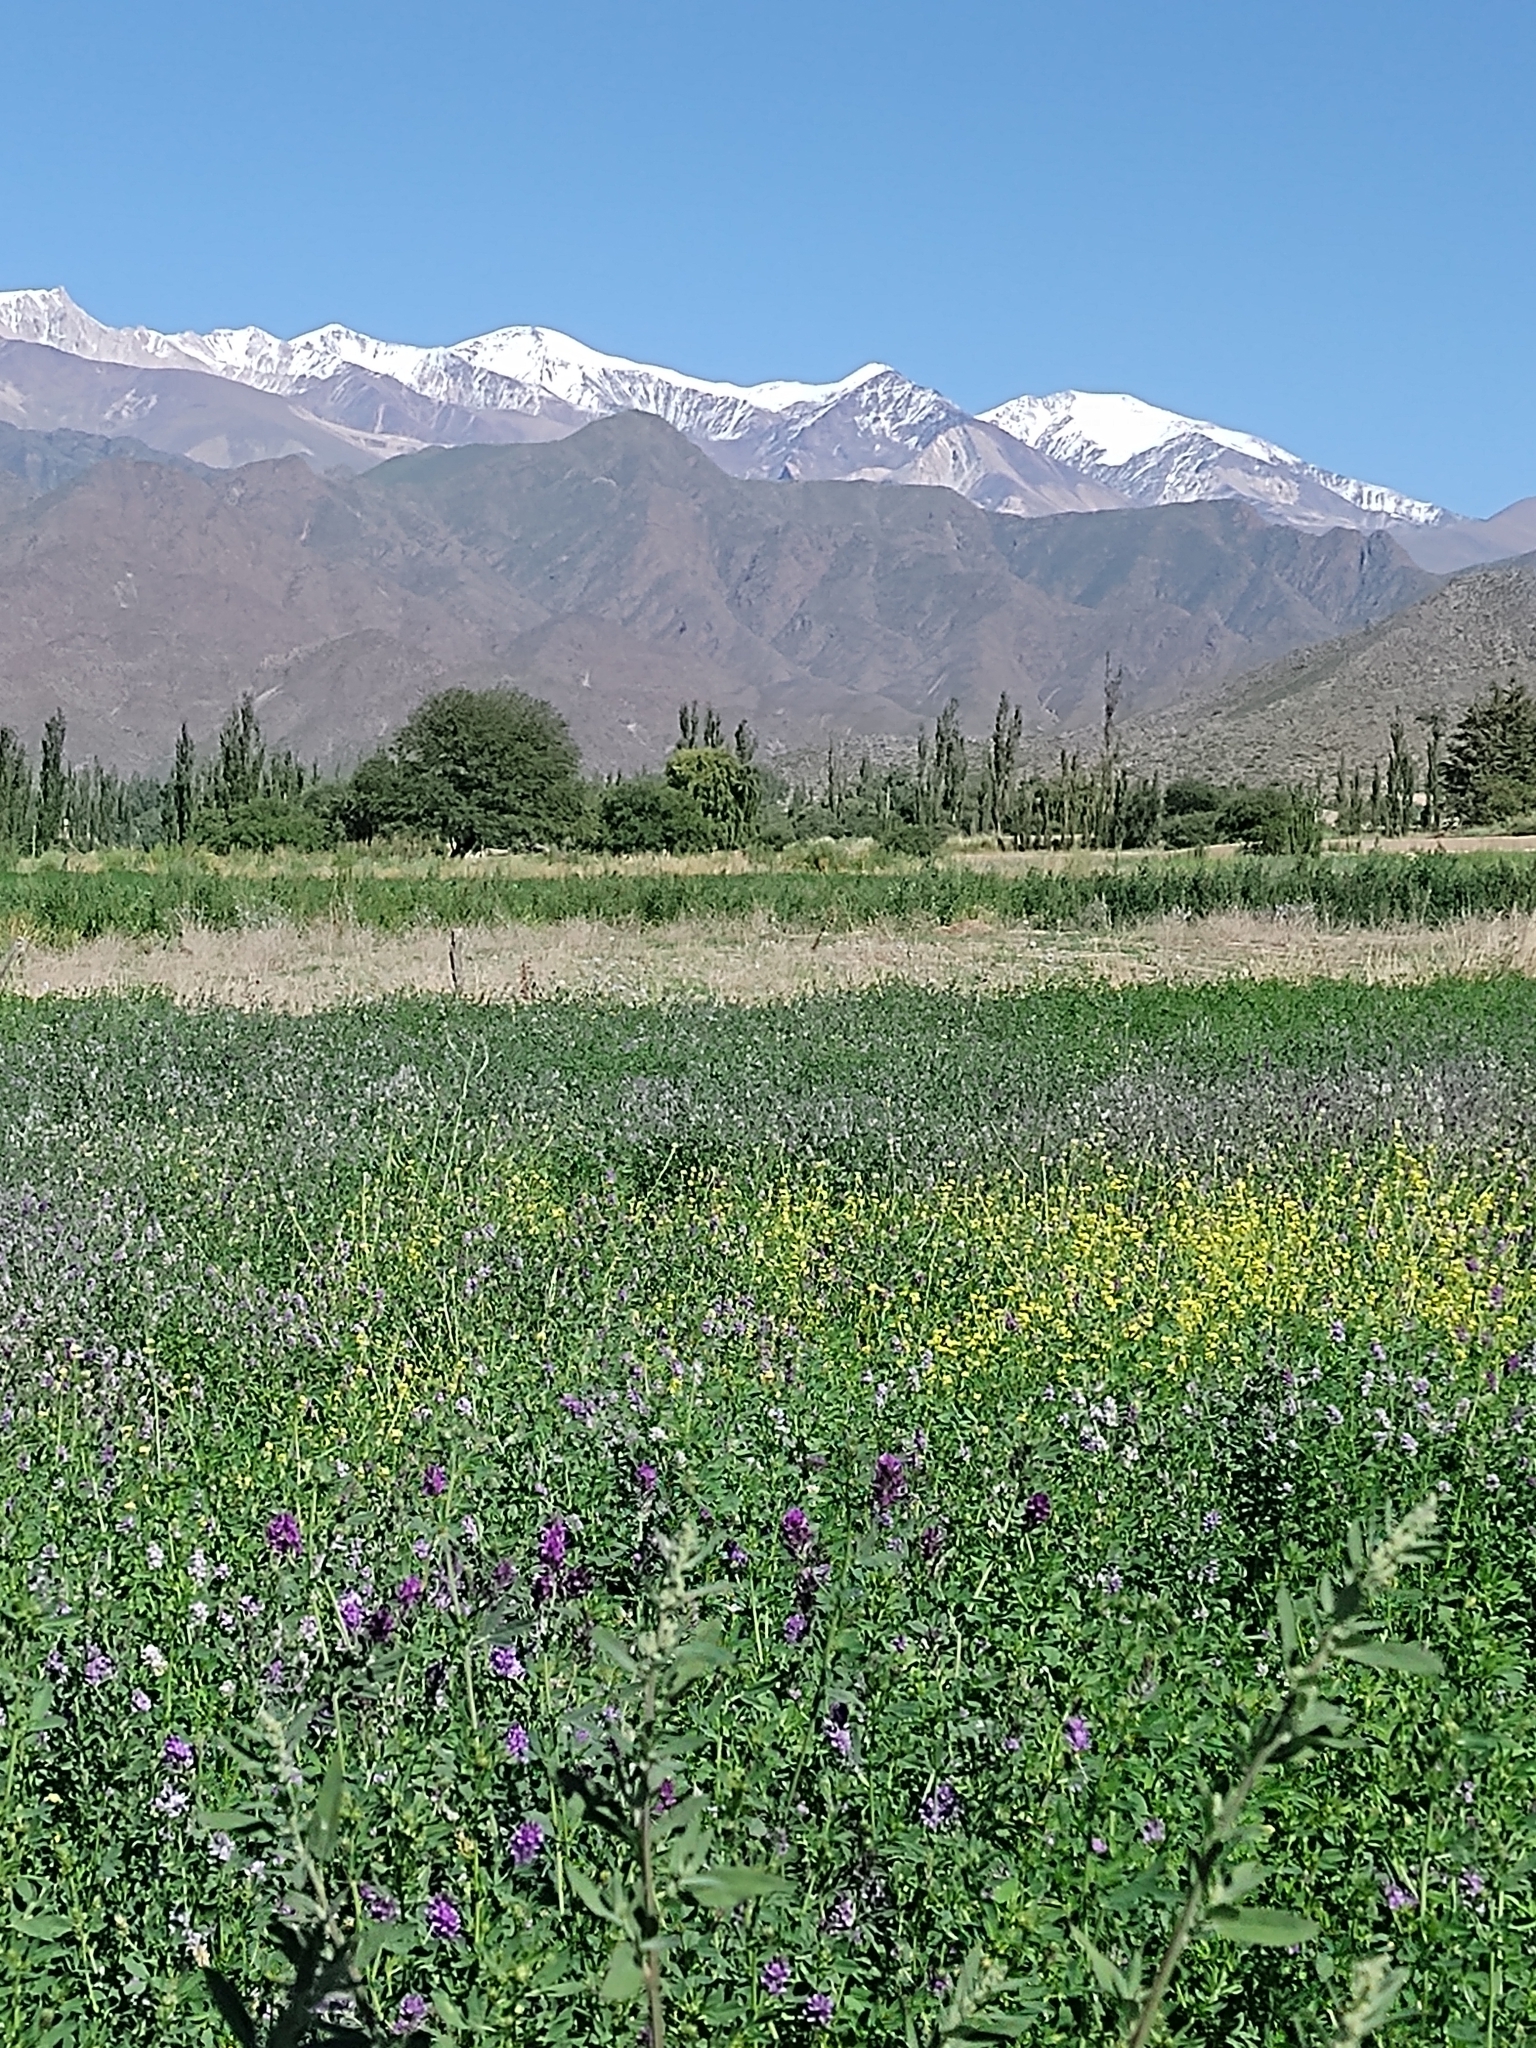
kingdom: Plantae
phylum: Tracheophyta
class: Magnoliopsida
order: Fabales
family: Fabaceae
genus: Medicago
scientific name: Medicago sativa
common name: Alfalfa
